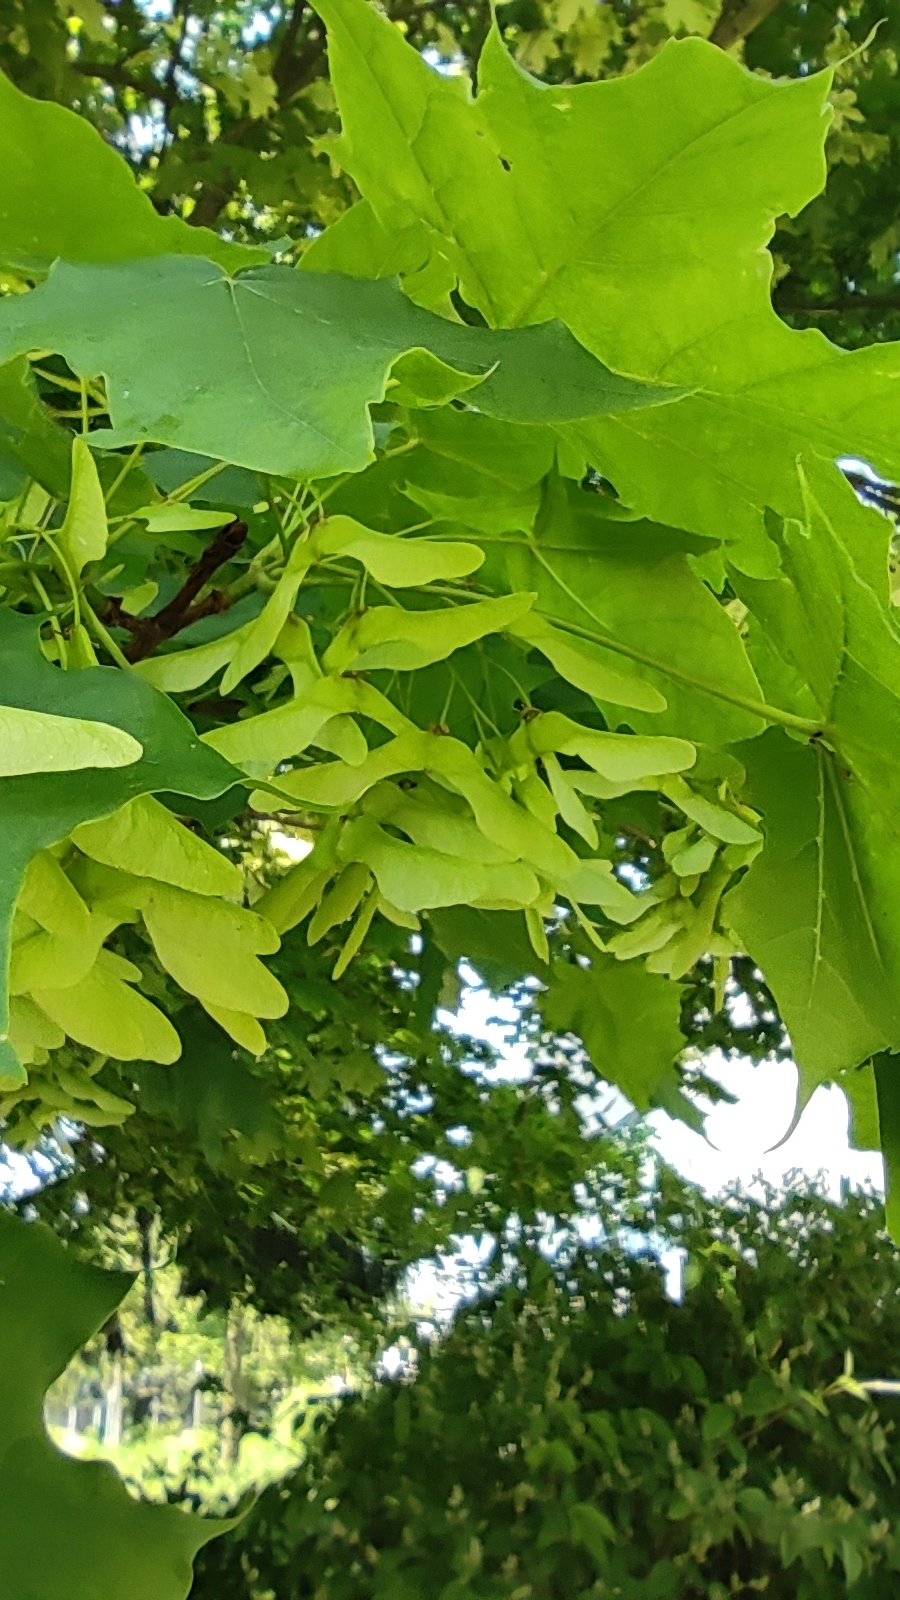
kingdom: Plantae
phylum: Tracheophyta
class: Magnoliopsida
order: Sapindales
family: Sapindaceae
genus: Acer
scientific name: Acer platanoides
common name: Norway maple
